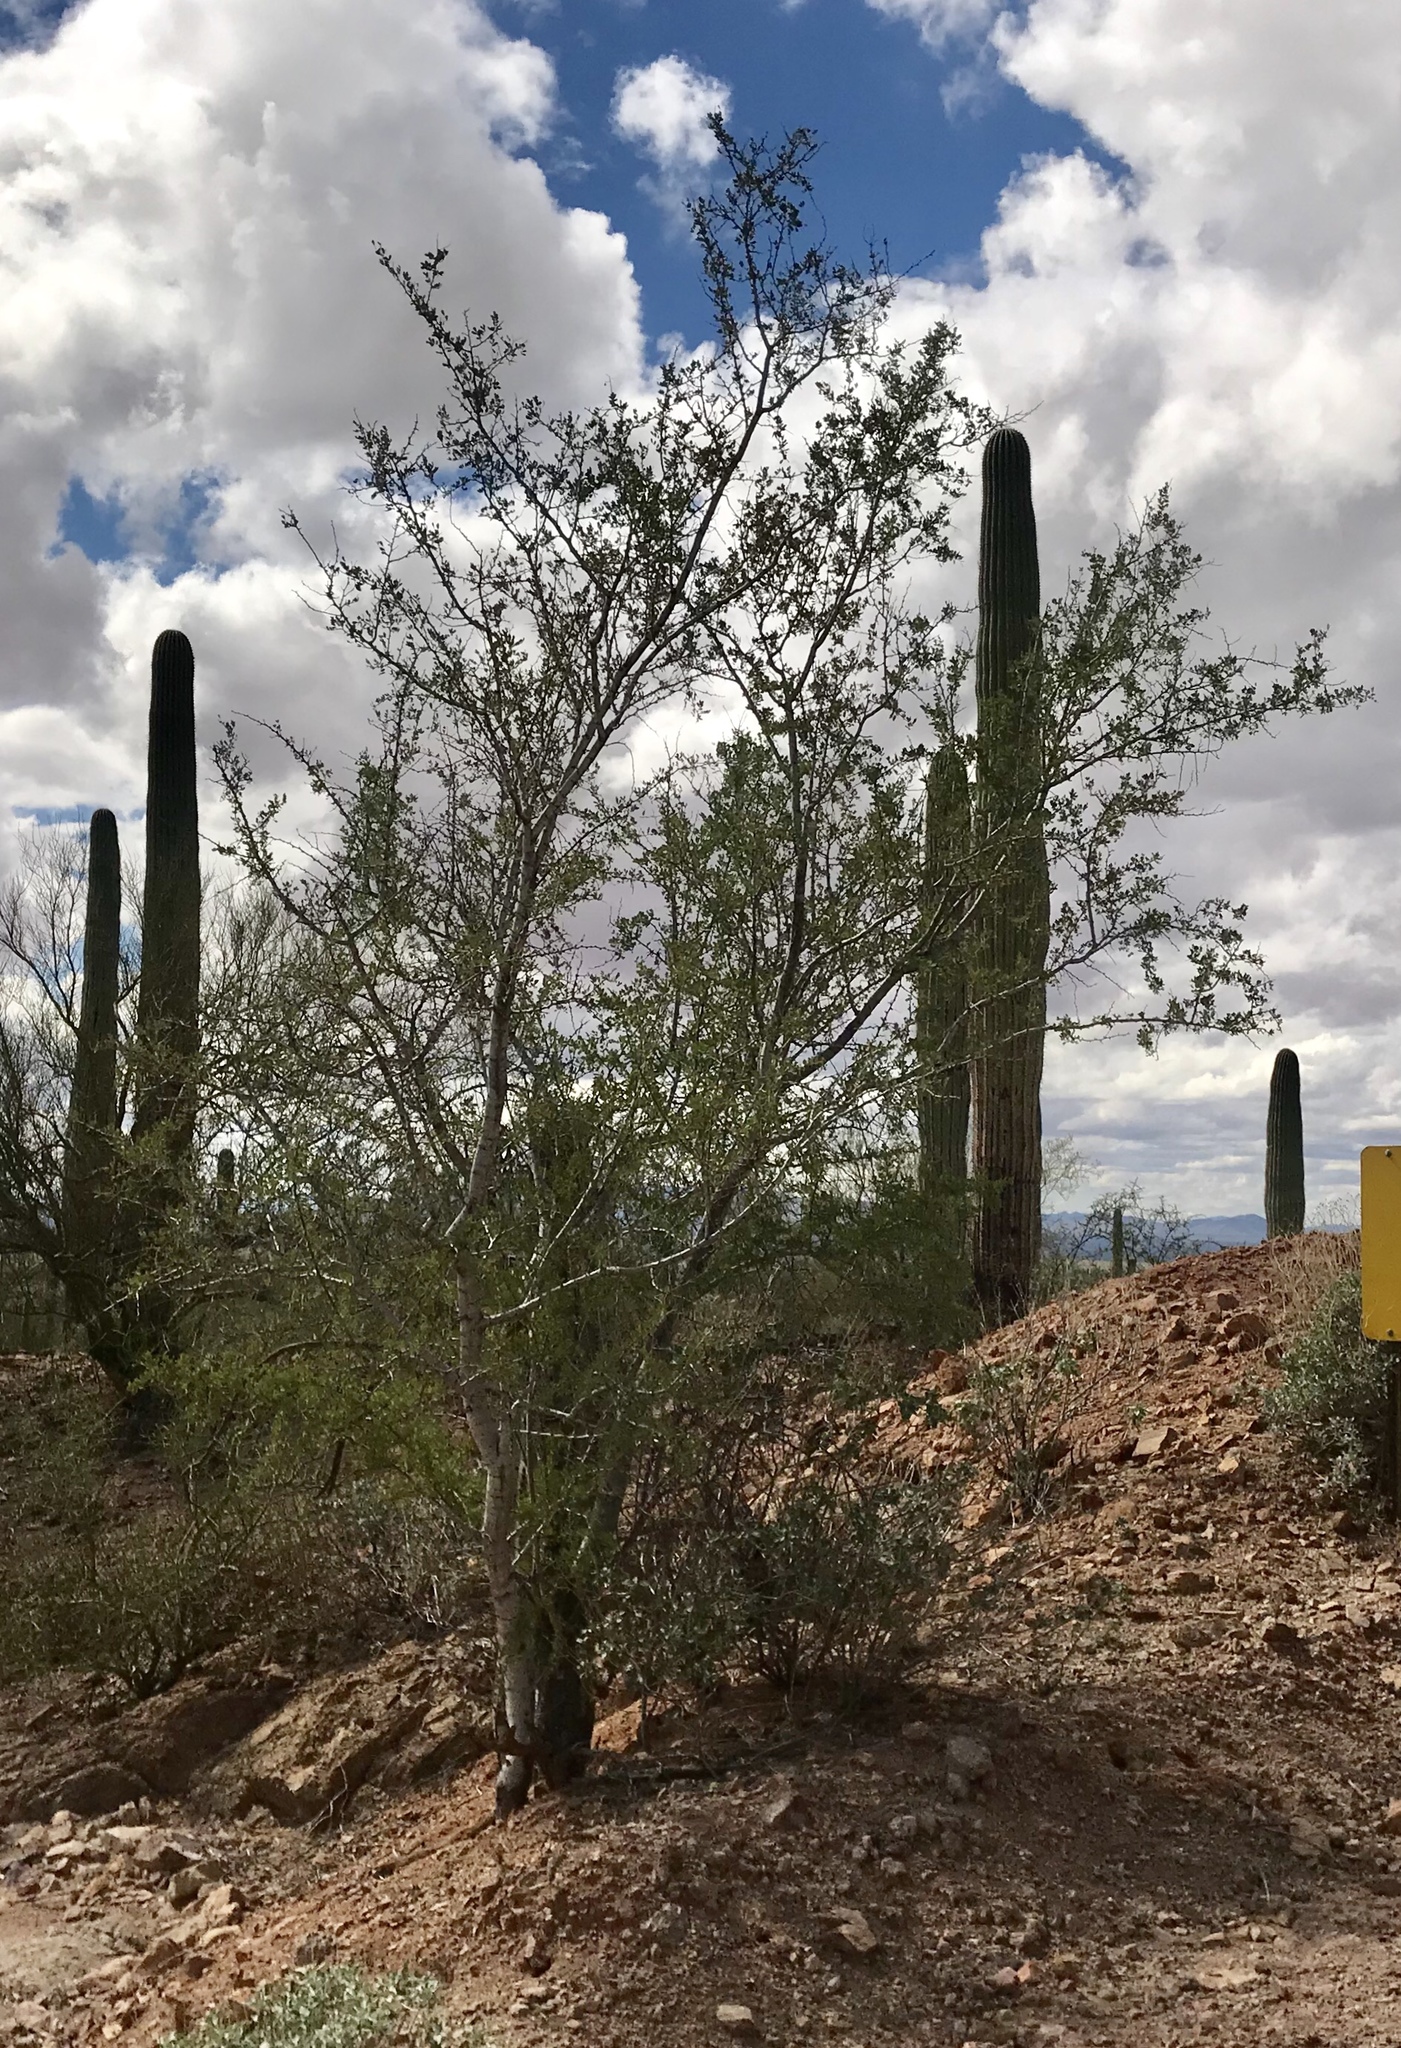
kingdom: Plantae
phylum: Tracheophyta
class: Magnoliopsida
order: Fabales
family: Fabaceae
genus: Olneya
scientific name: Olneya tesota
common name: Desert ironwood
